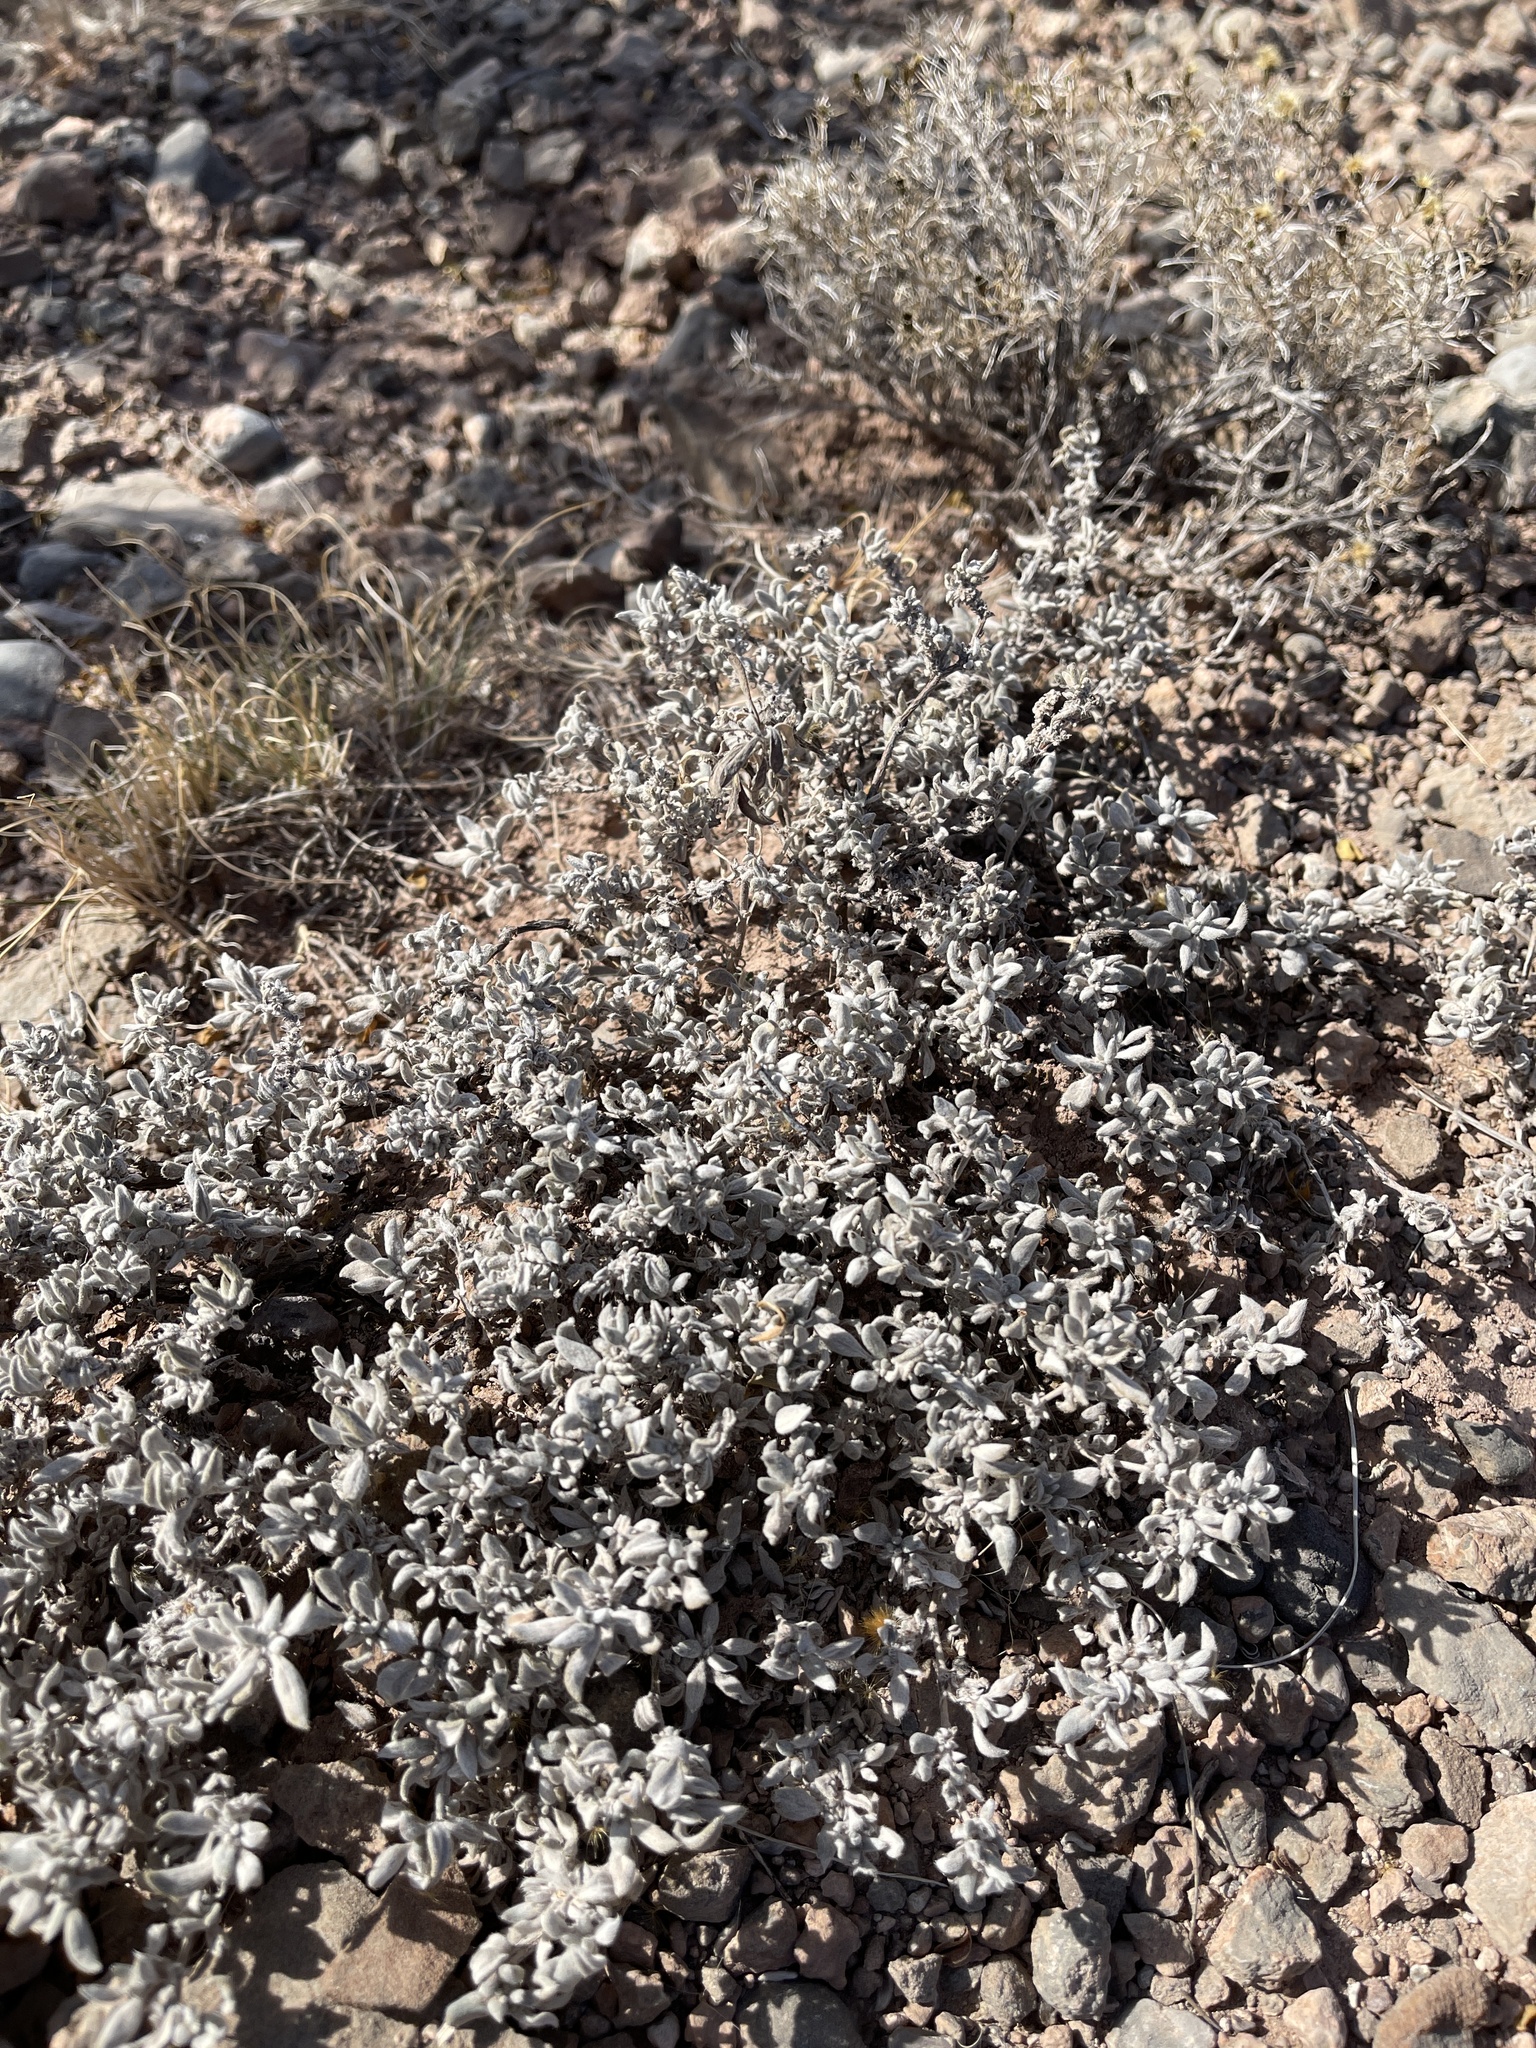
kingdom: Plantae
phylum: Tracheophyta
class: Magnoliopsida
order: Boraginales
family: Ehretiaceae
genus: Tiquilia
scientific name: Tiquilia canescens
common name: Hairy tiquilia
